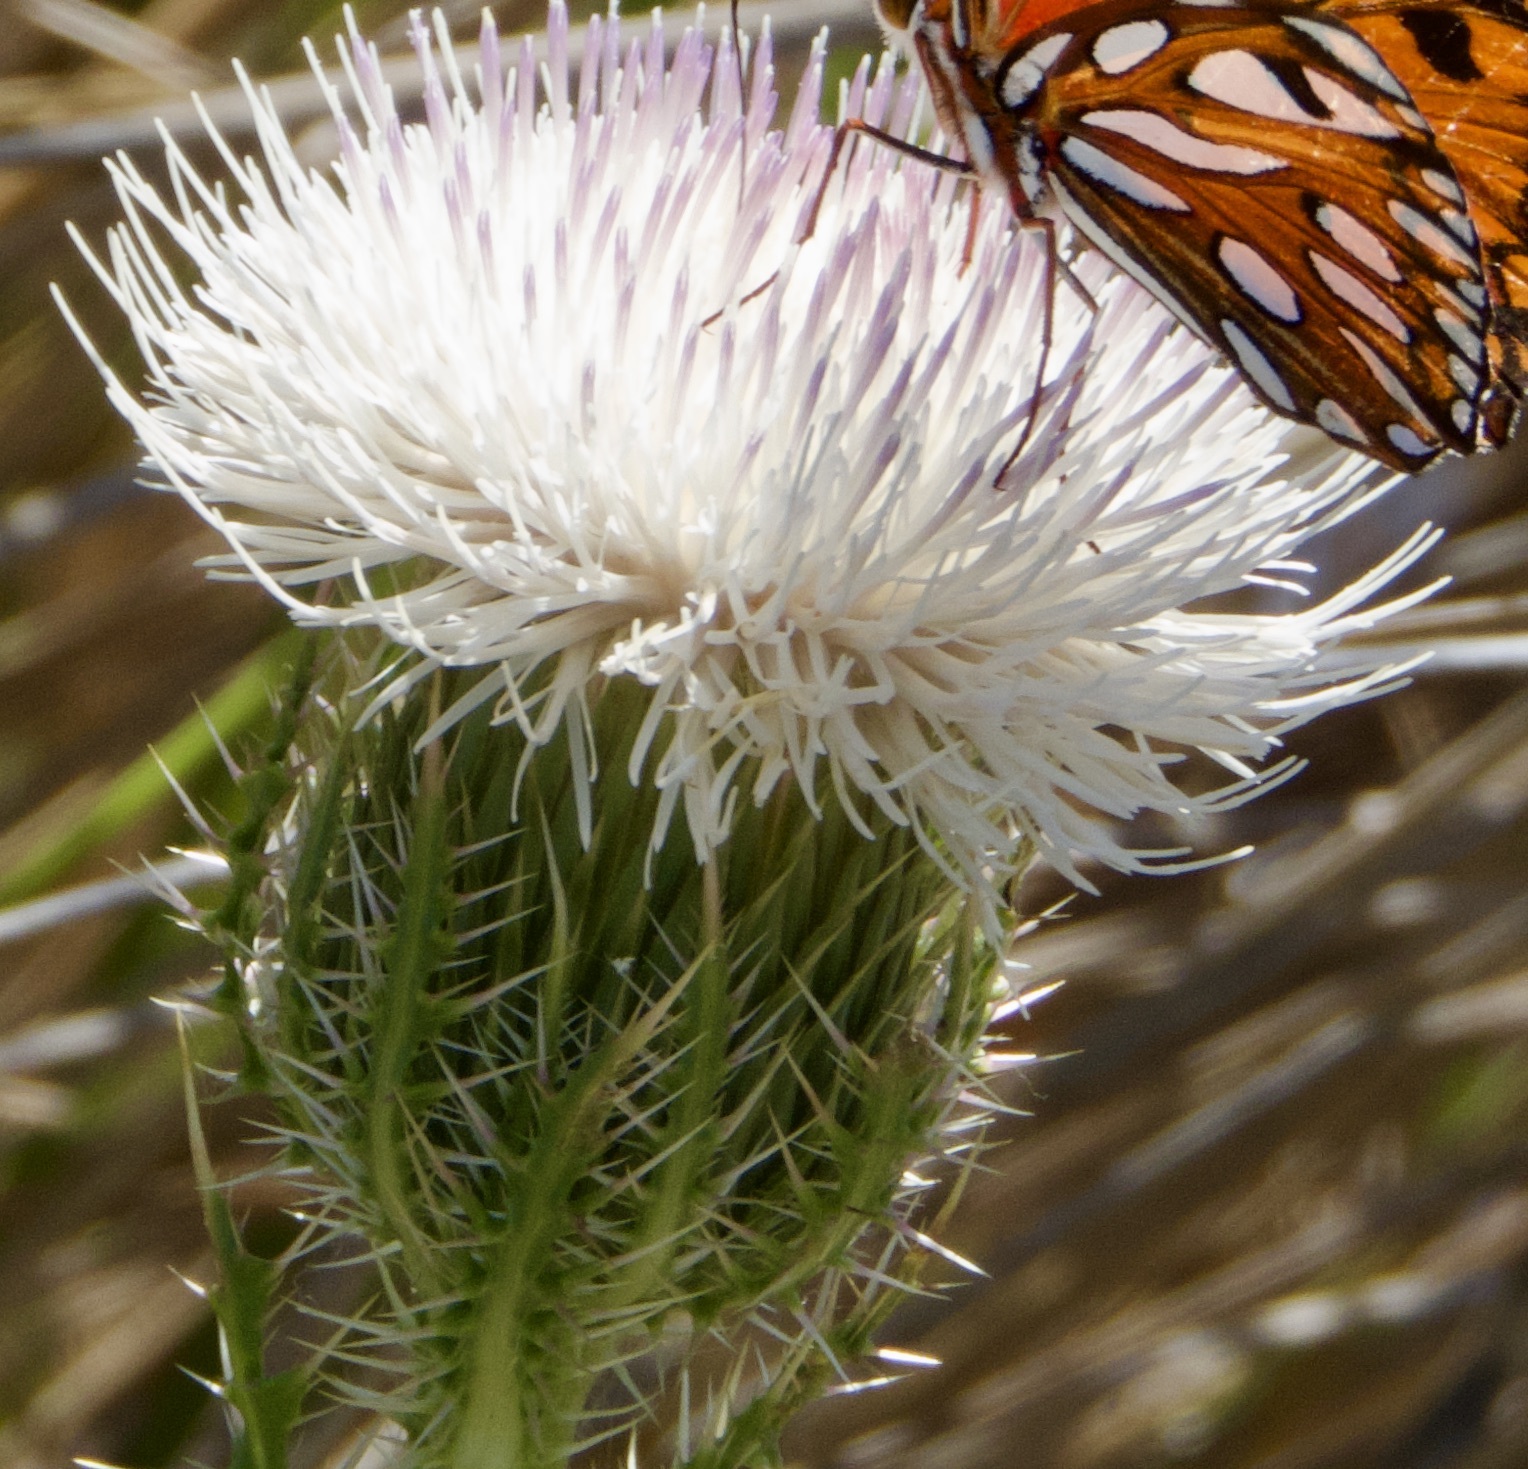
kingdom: Plantae
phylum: Tracheophyta
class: Magnoliopsida
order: Asterales
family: Asteraceae
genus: Cirsium
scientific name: Cirsium horridulum
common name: Bristly thistle
